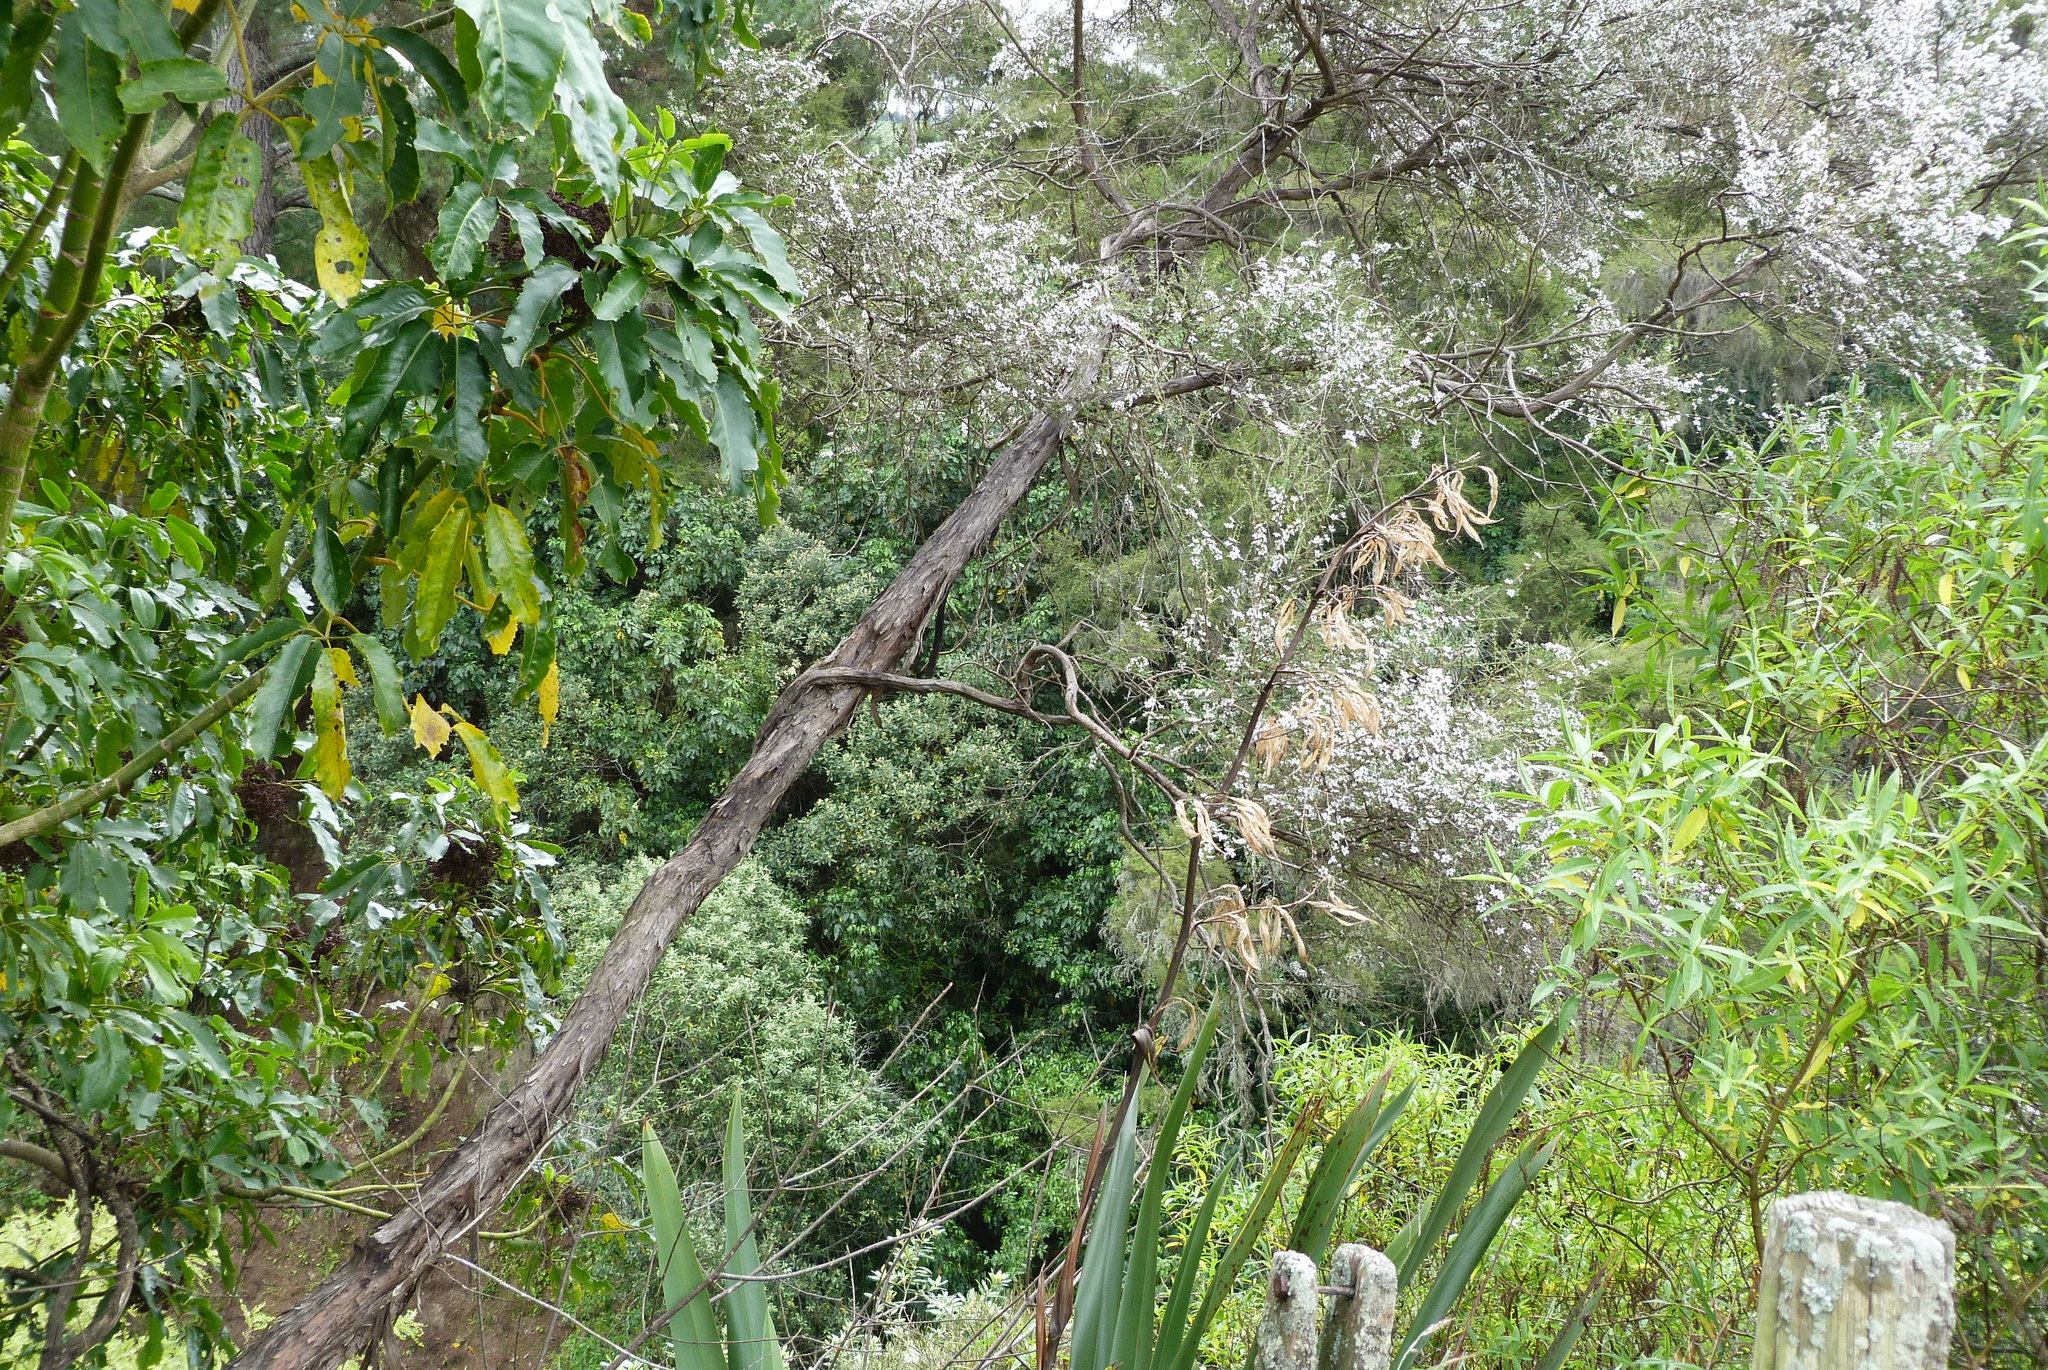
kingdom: Plantae
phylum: Tracheophyta
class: Magnoliopsida
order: Apiales
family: Araliaceae
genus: Neopanax
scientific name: Neopanax arboreus
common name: Five-fingers
